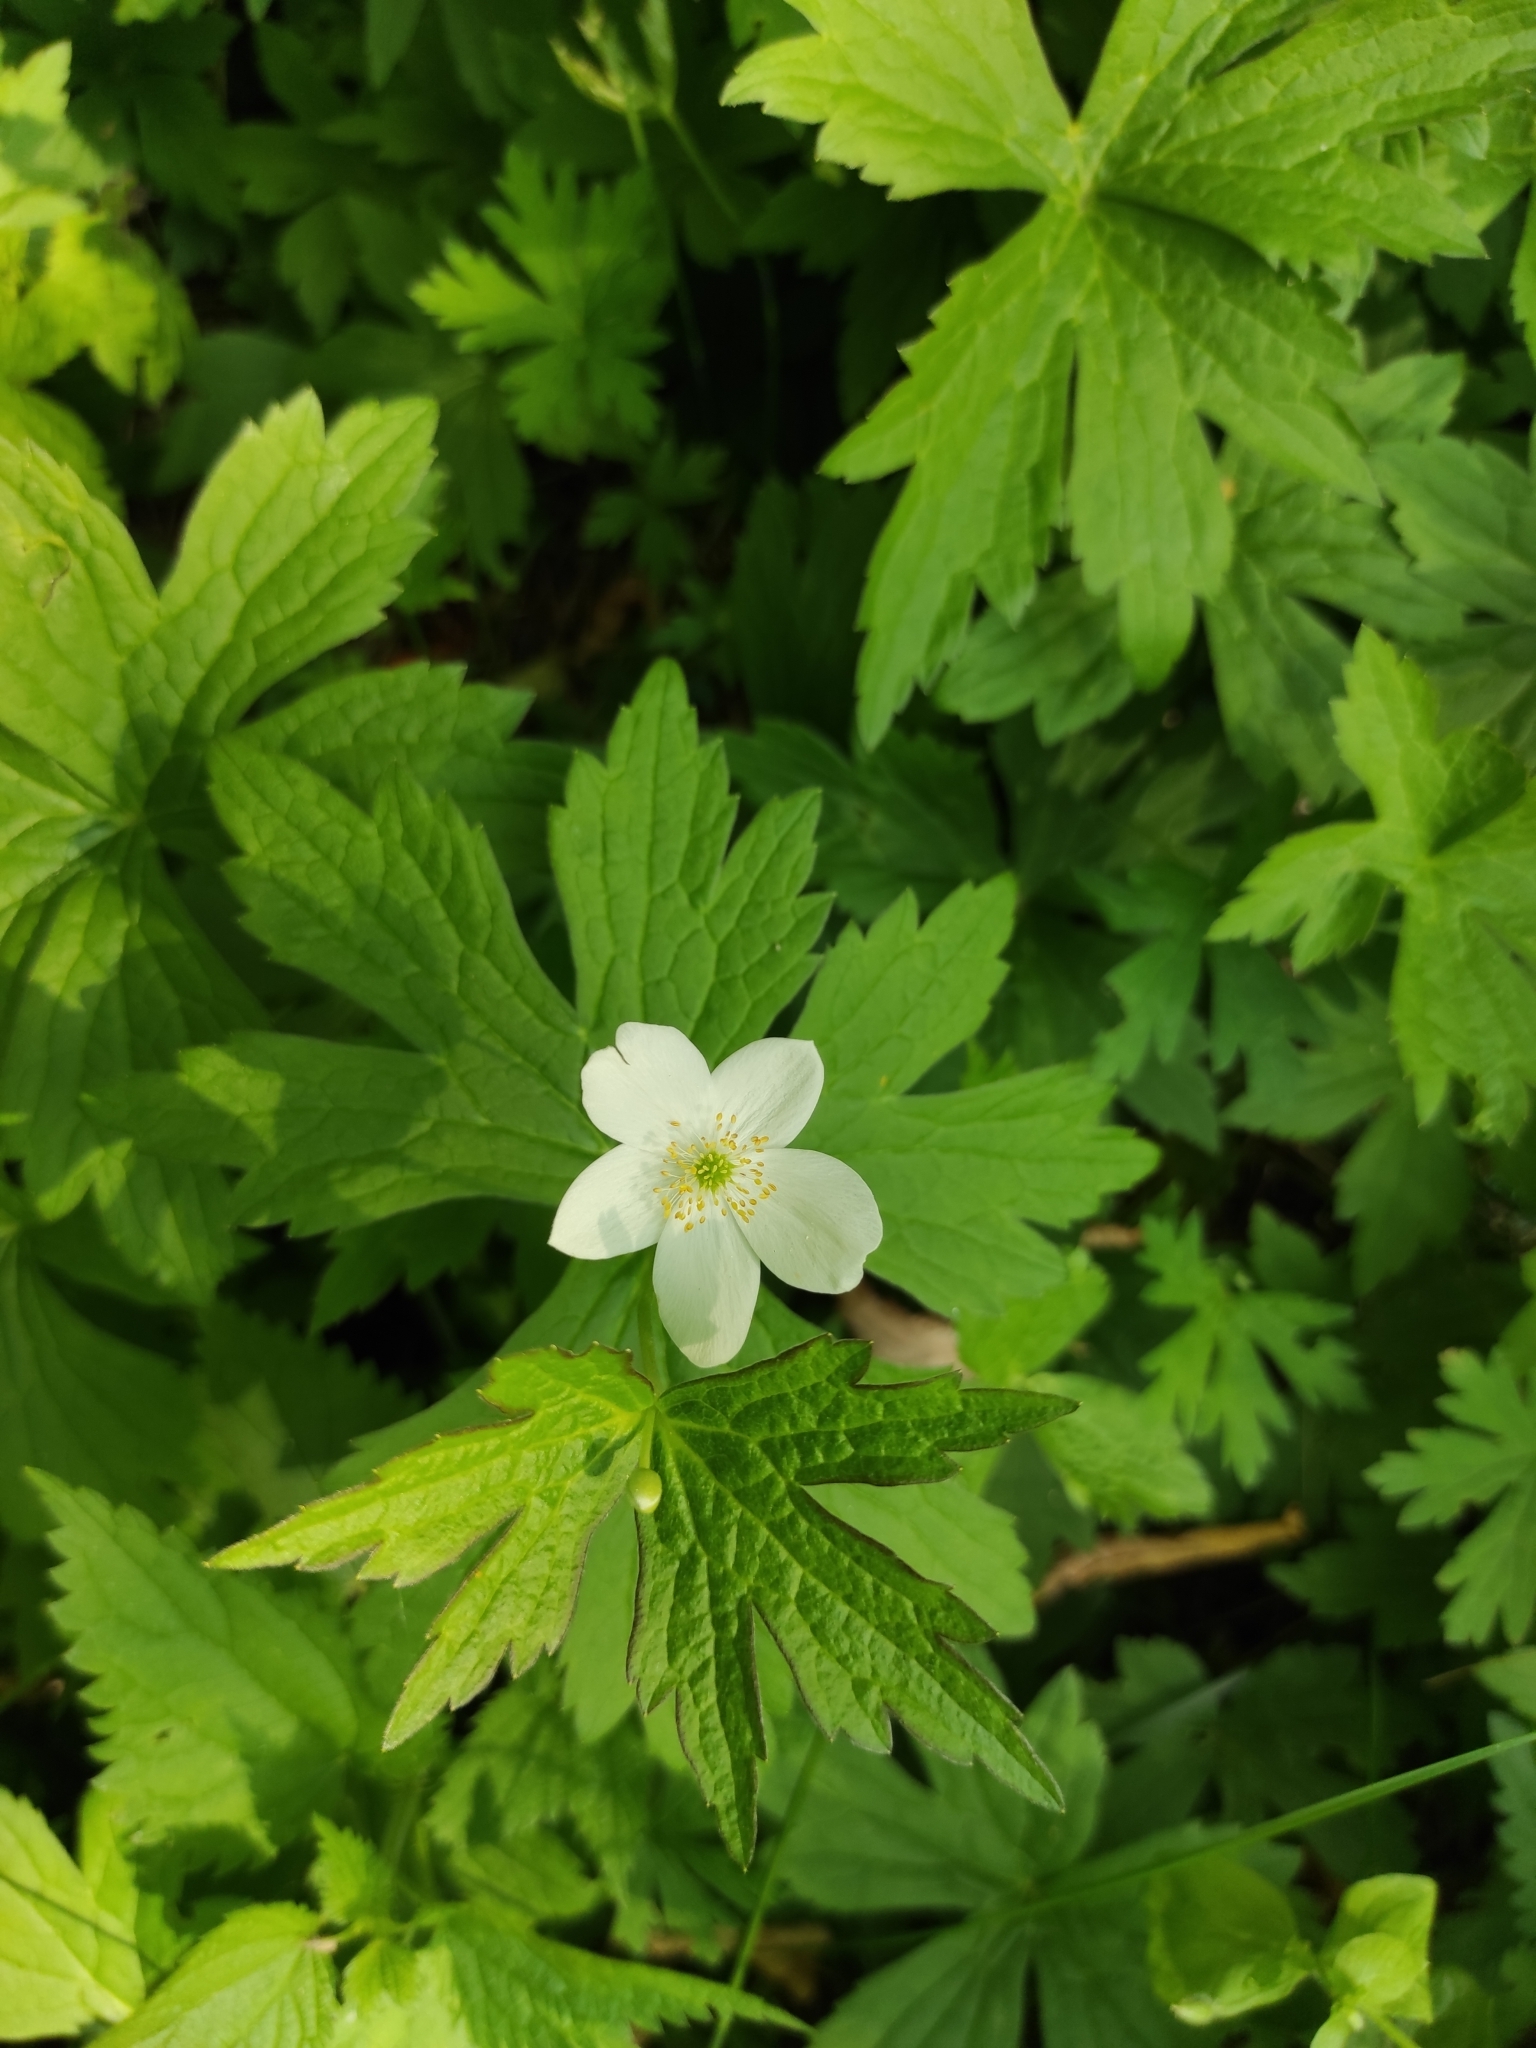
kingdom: Plantae
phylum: Tracheophyta
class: Magnoliopsida
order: Ranunculales
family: Ranunculaceae
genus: Anemonastrum
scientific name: Anemonastrum canadense
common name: Canada anemone
